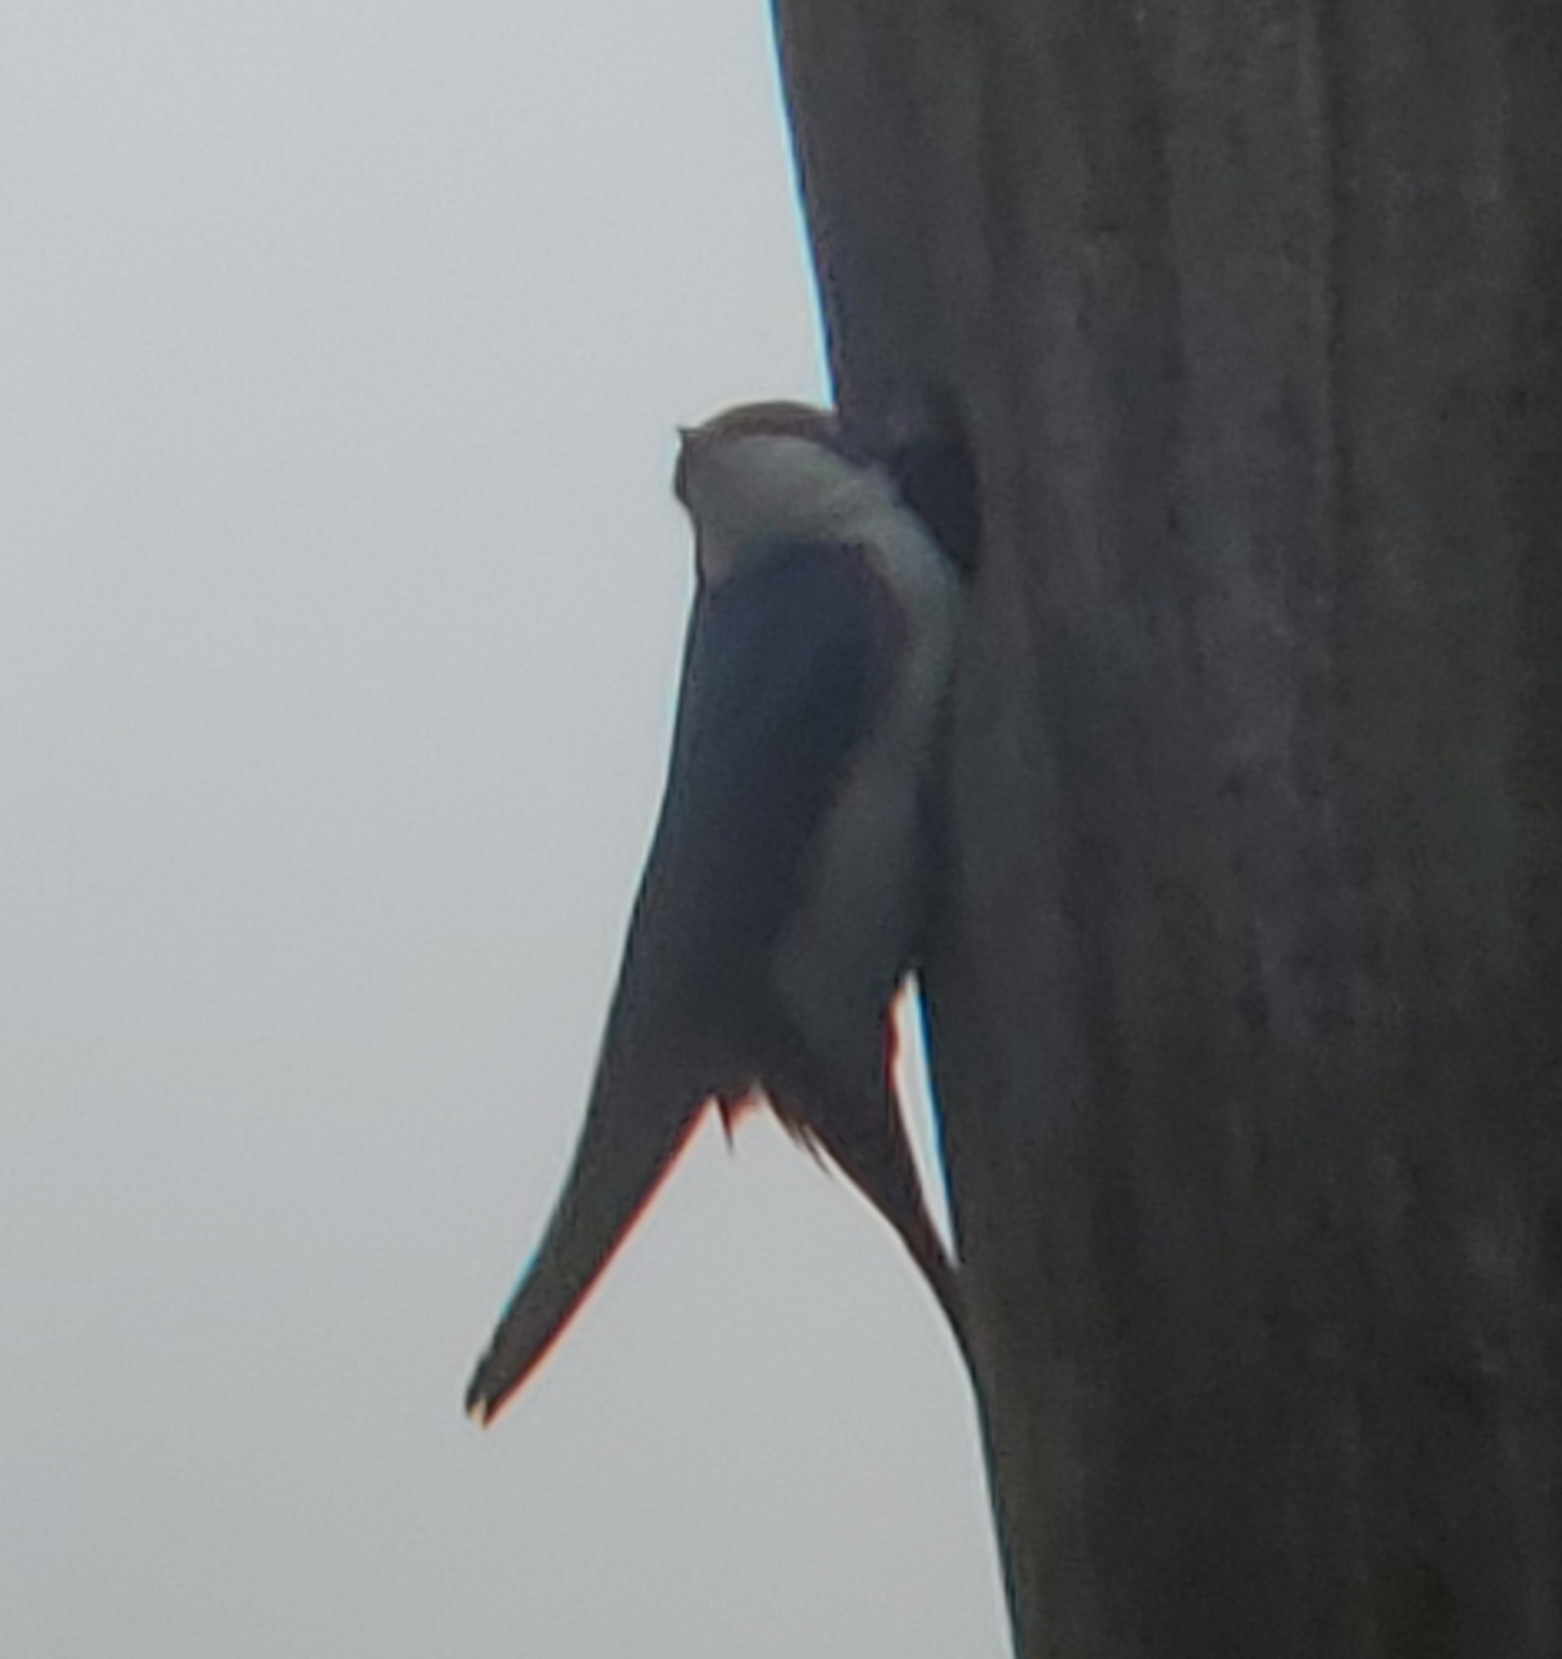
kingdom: Animalia
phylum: Chordata
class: Aves
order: Passeriformes
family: Hirundinidae
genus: Tachycineta
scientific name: Tachycineta bicolor
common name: Tree swallow
